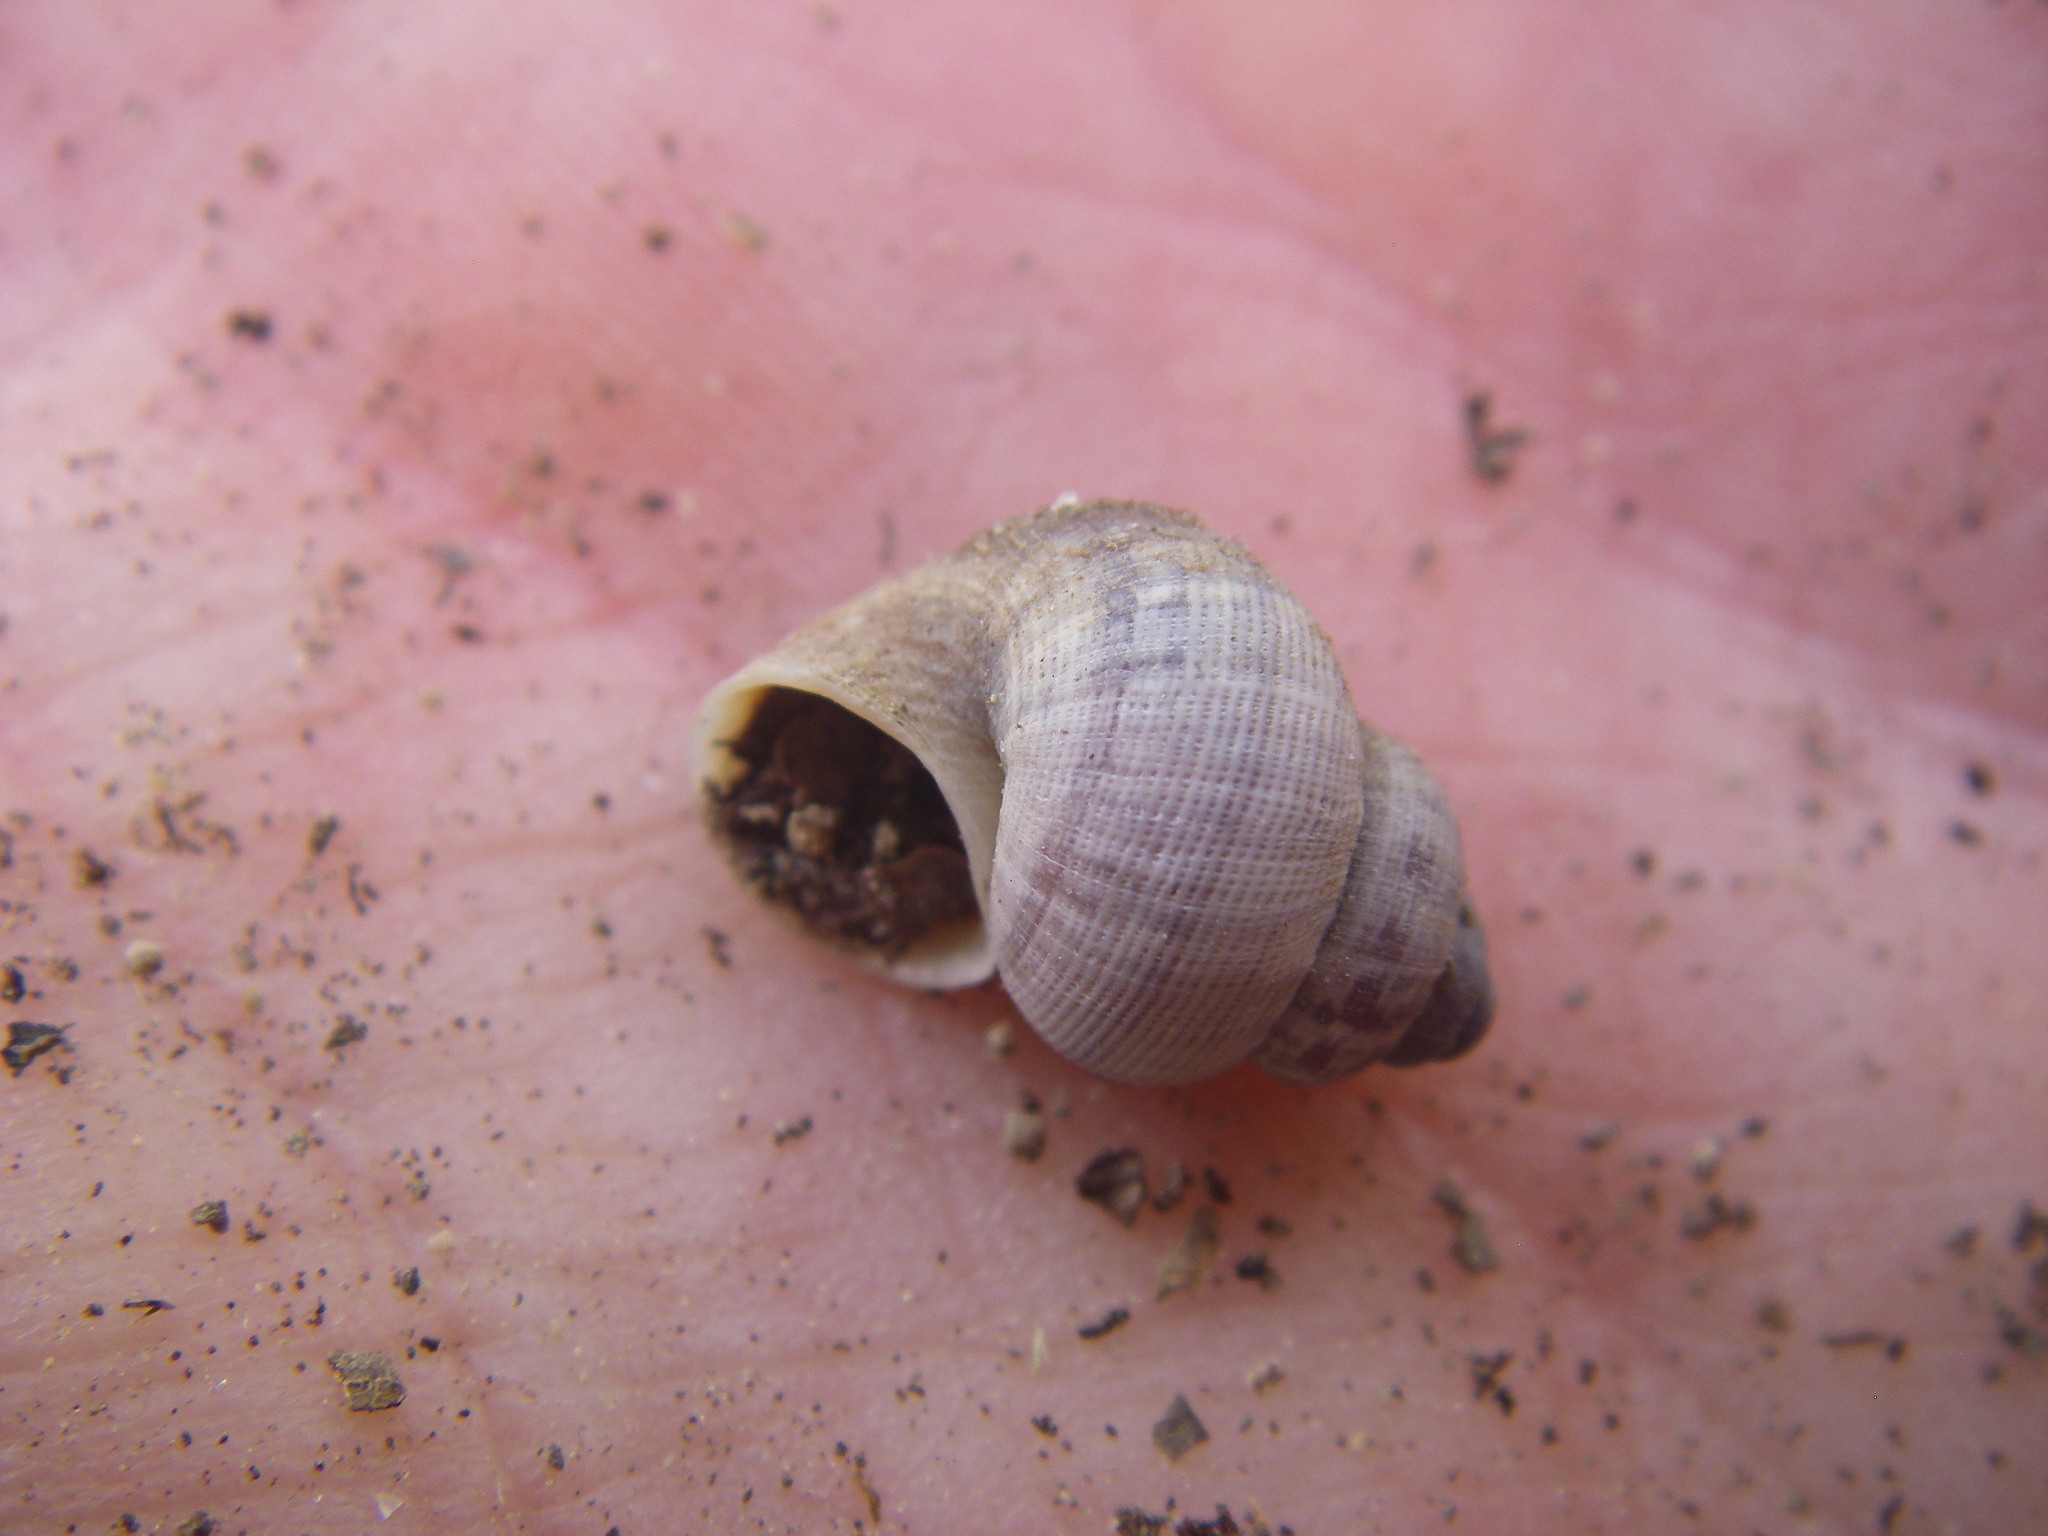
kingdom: Animalia
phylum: Mollusca
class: Gastropoda
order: Littorinimorpha
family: Pomatiidae
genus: Pomatias
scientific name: Pomatias elegans
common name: Red-mouthed snail
